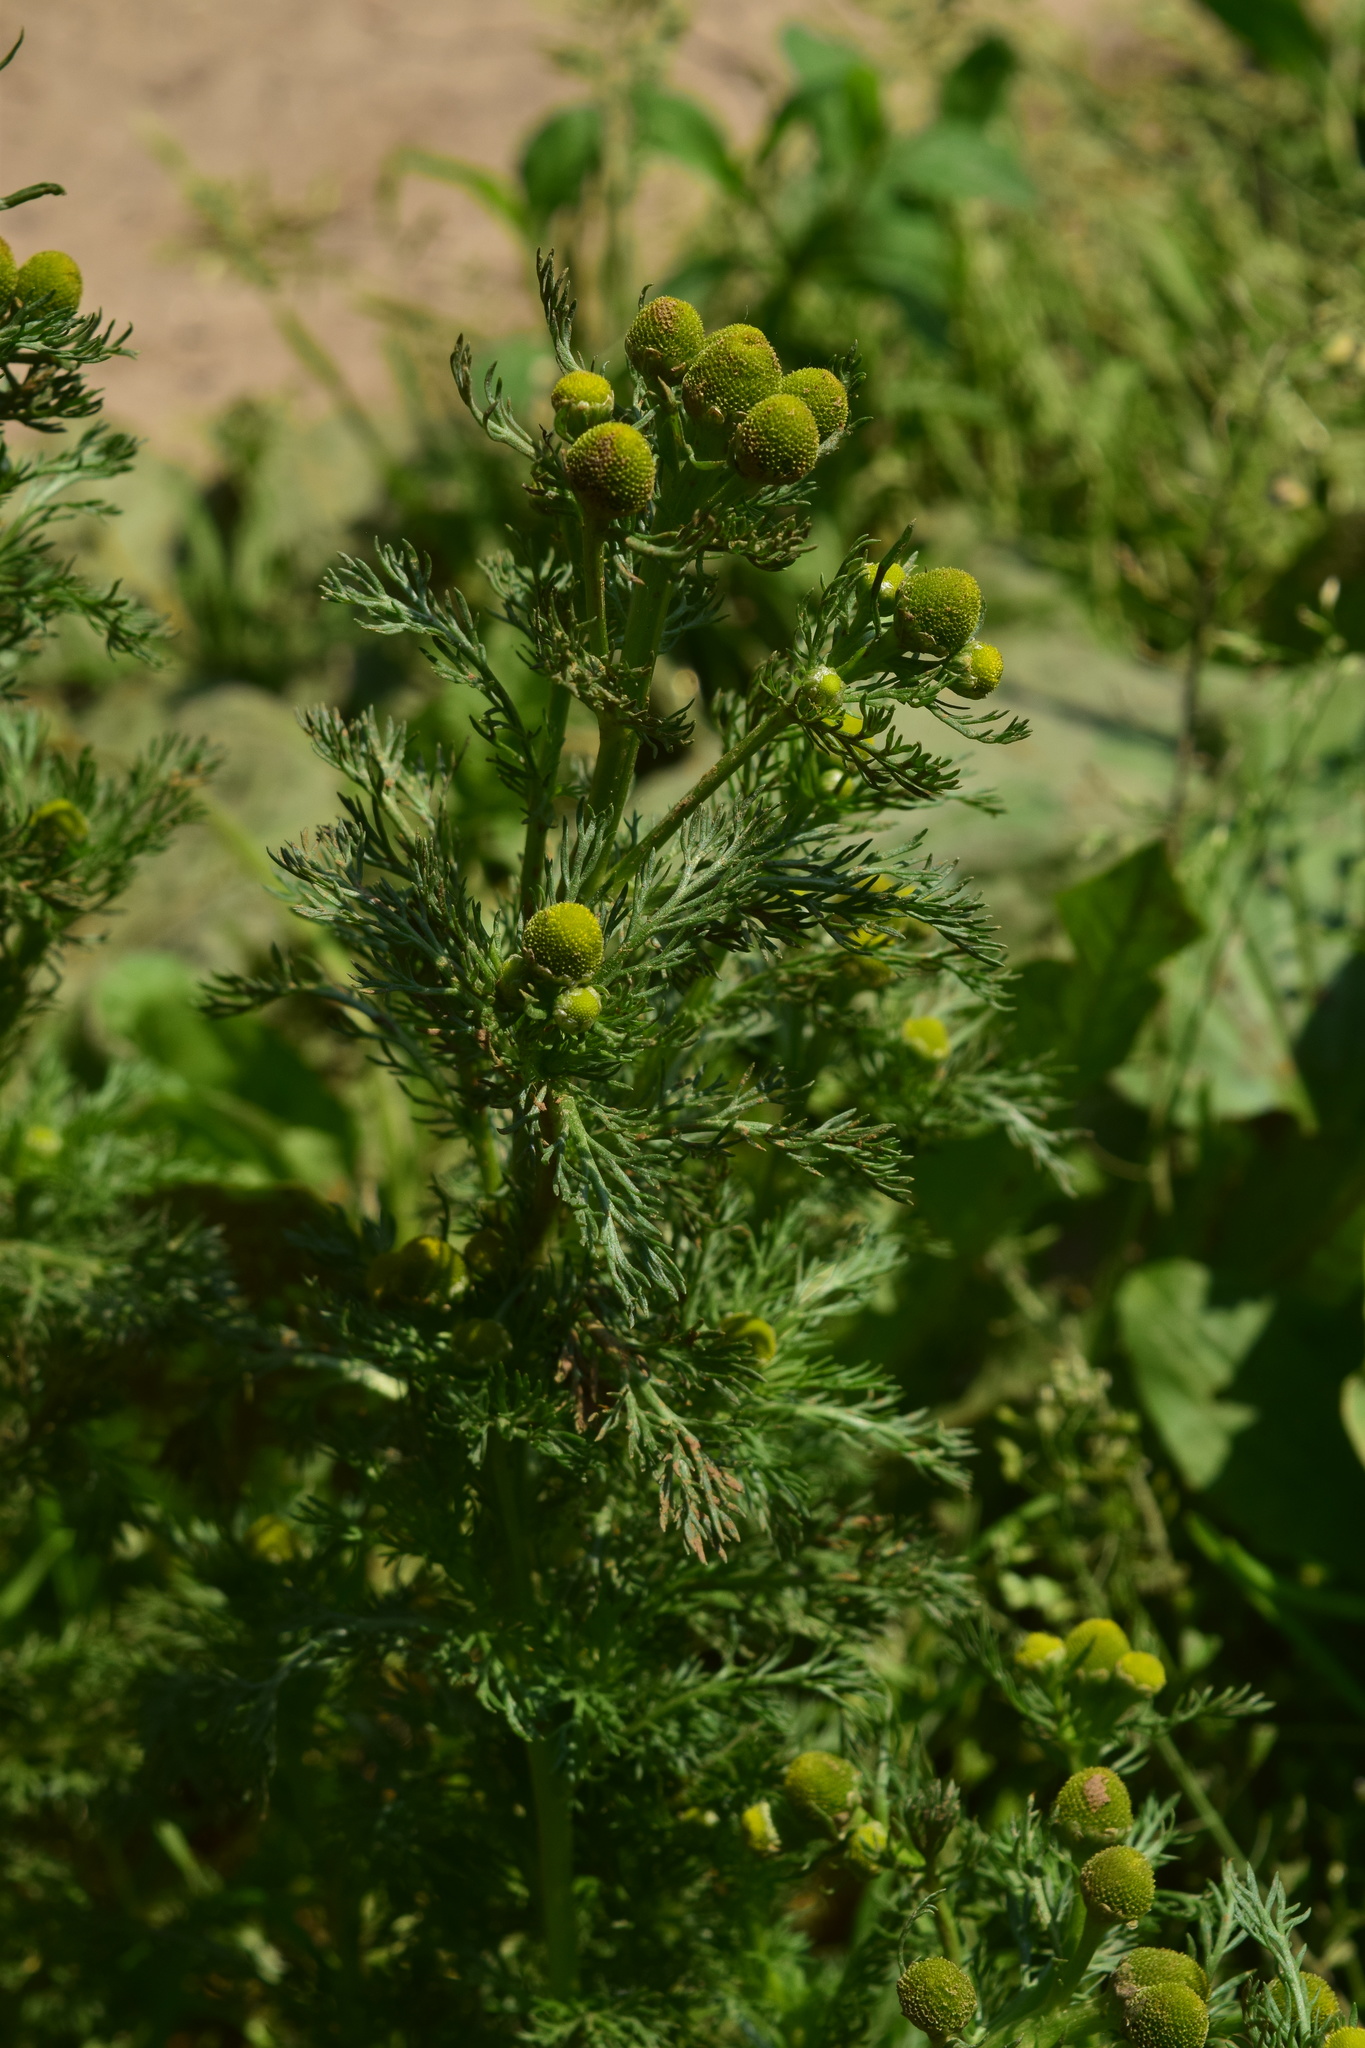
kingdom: Plantae
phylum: Tracheophyta
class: Magnoliopsida
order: Asterales
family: Asteraceae
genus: Matricaria
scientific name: Matricaria discoidea
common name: Disc mayweed
